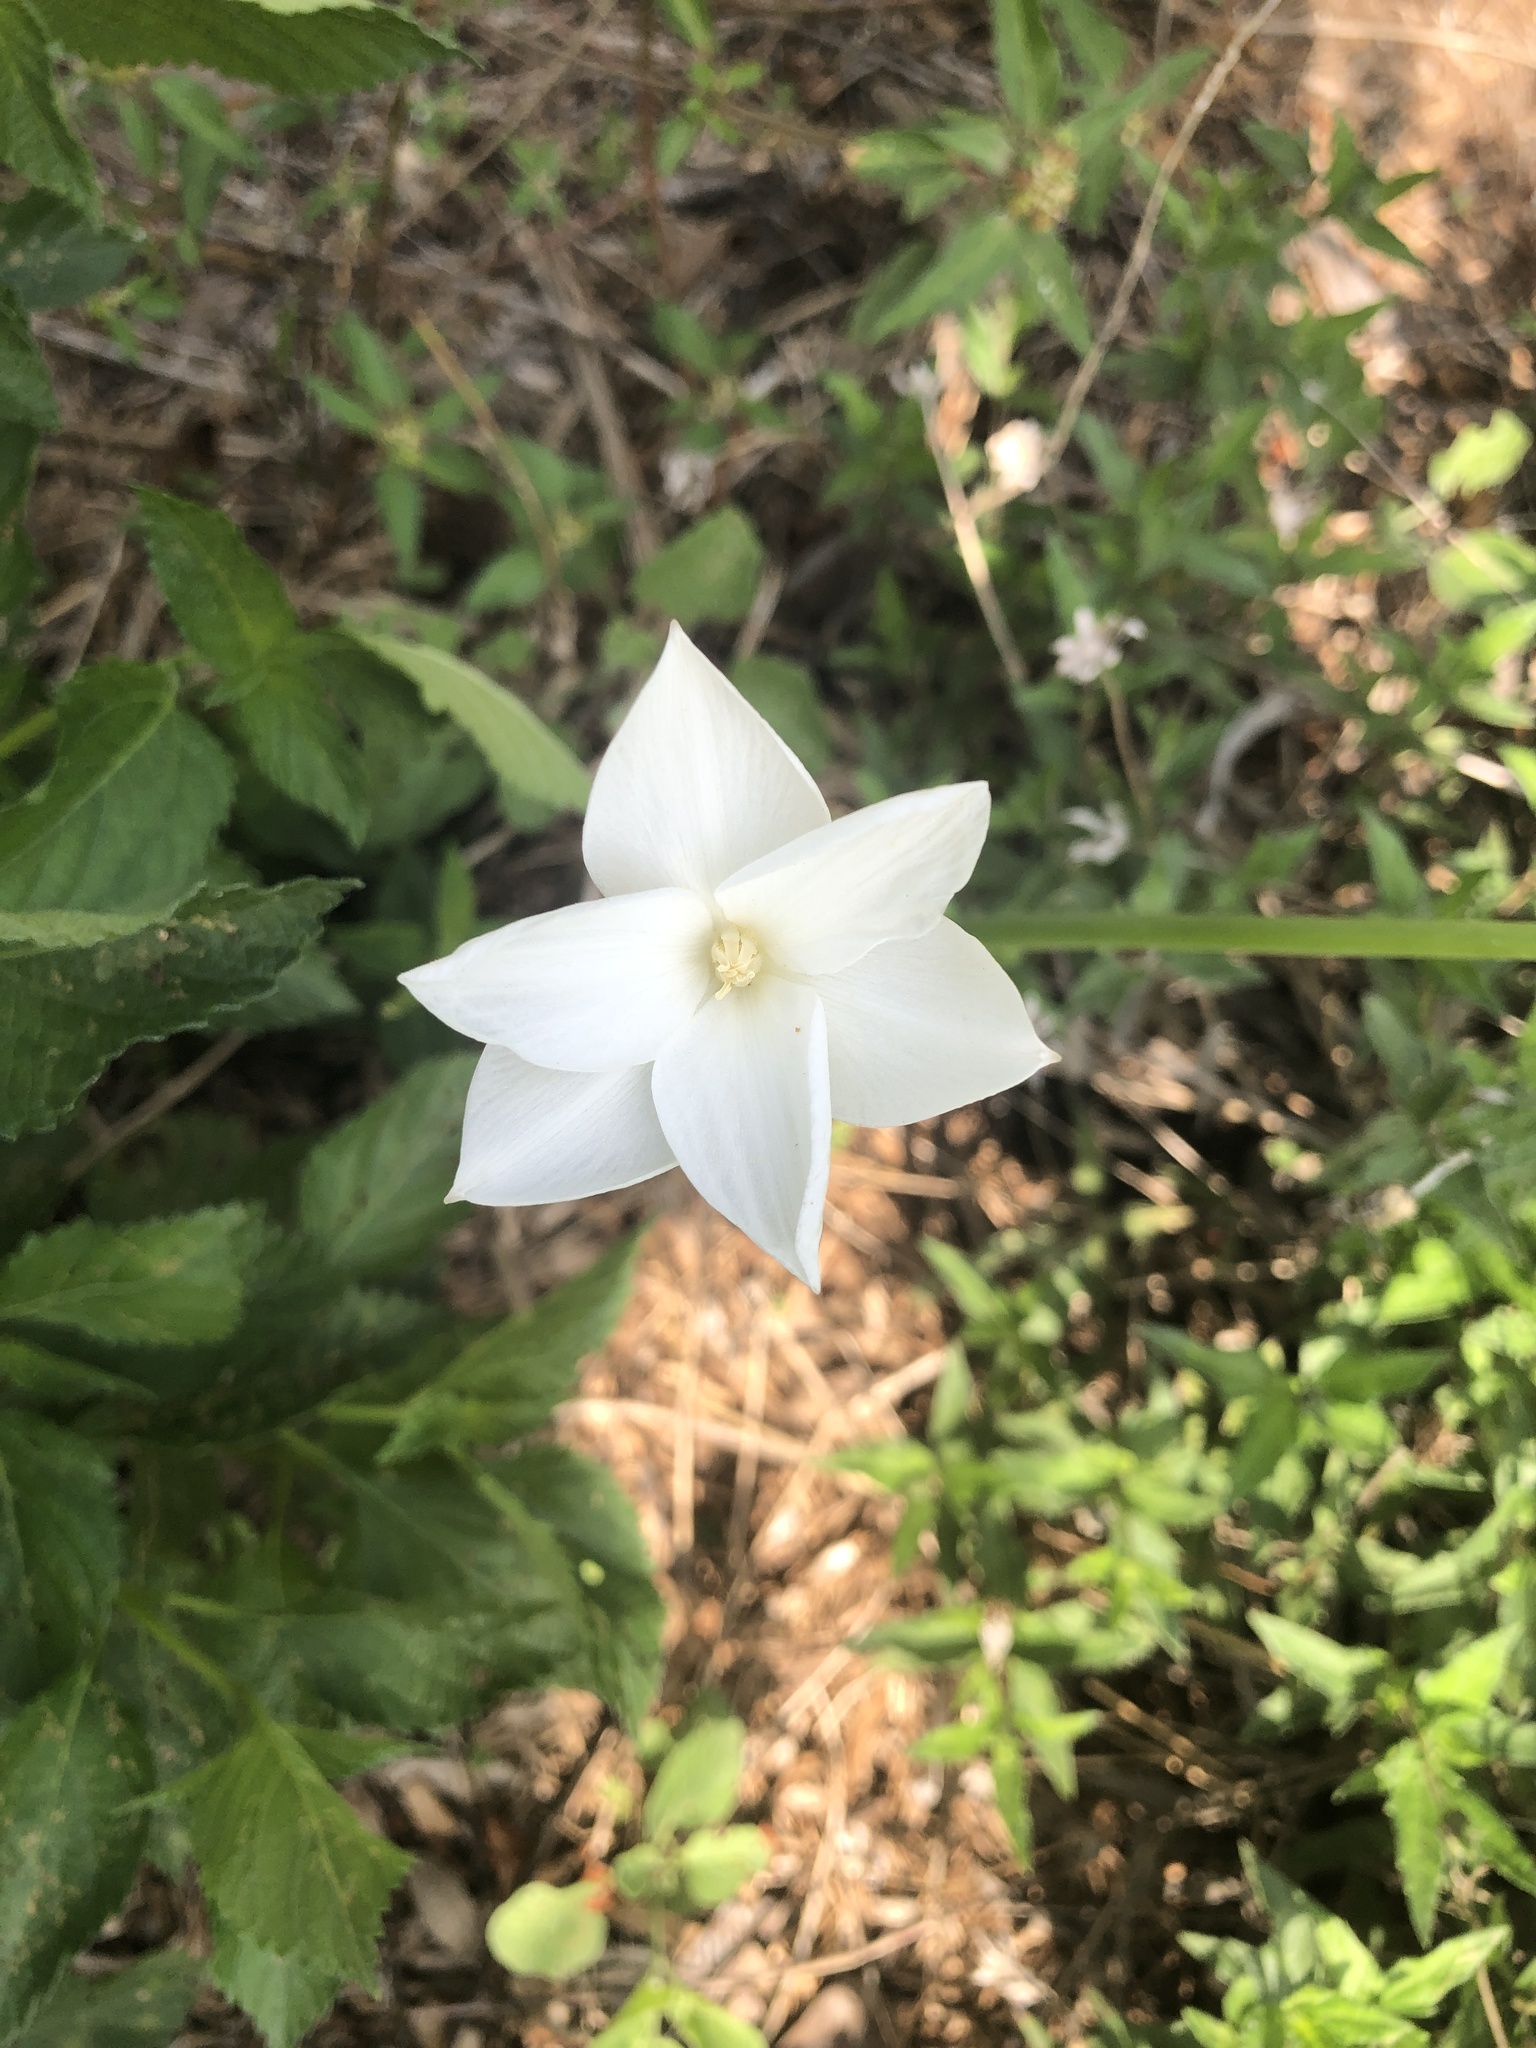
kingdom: Plantae
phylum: Tracheophyta
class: Liliopsida
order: Asparagales
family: Amaryllidaceae
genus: Zephyranthes
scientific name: Zephyranthes chlorosolen
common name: Evening rain-lily
